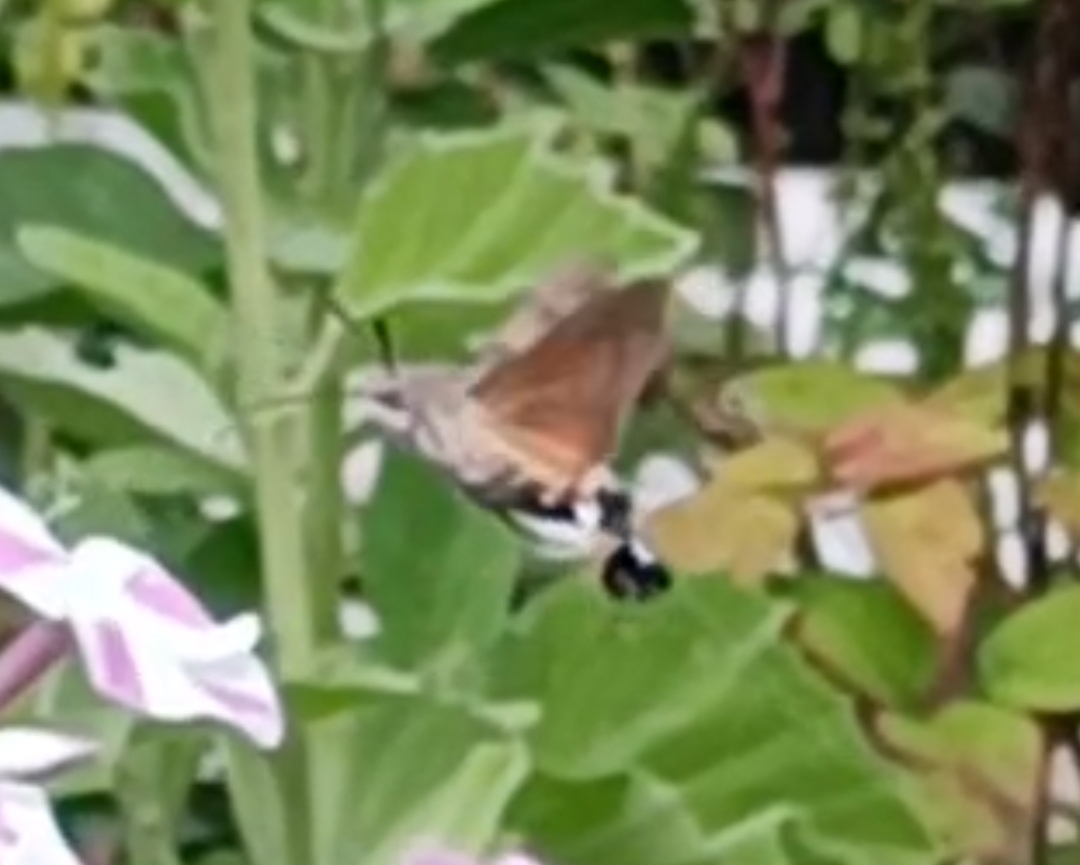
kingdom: Animalia
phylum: Arthropoda
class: Insecta
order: Lepidoptera
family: Sphingidae
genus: Macroglossum
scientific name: Macroglossum stellatarum
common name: Humming-bird hawk-moth
